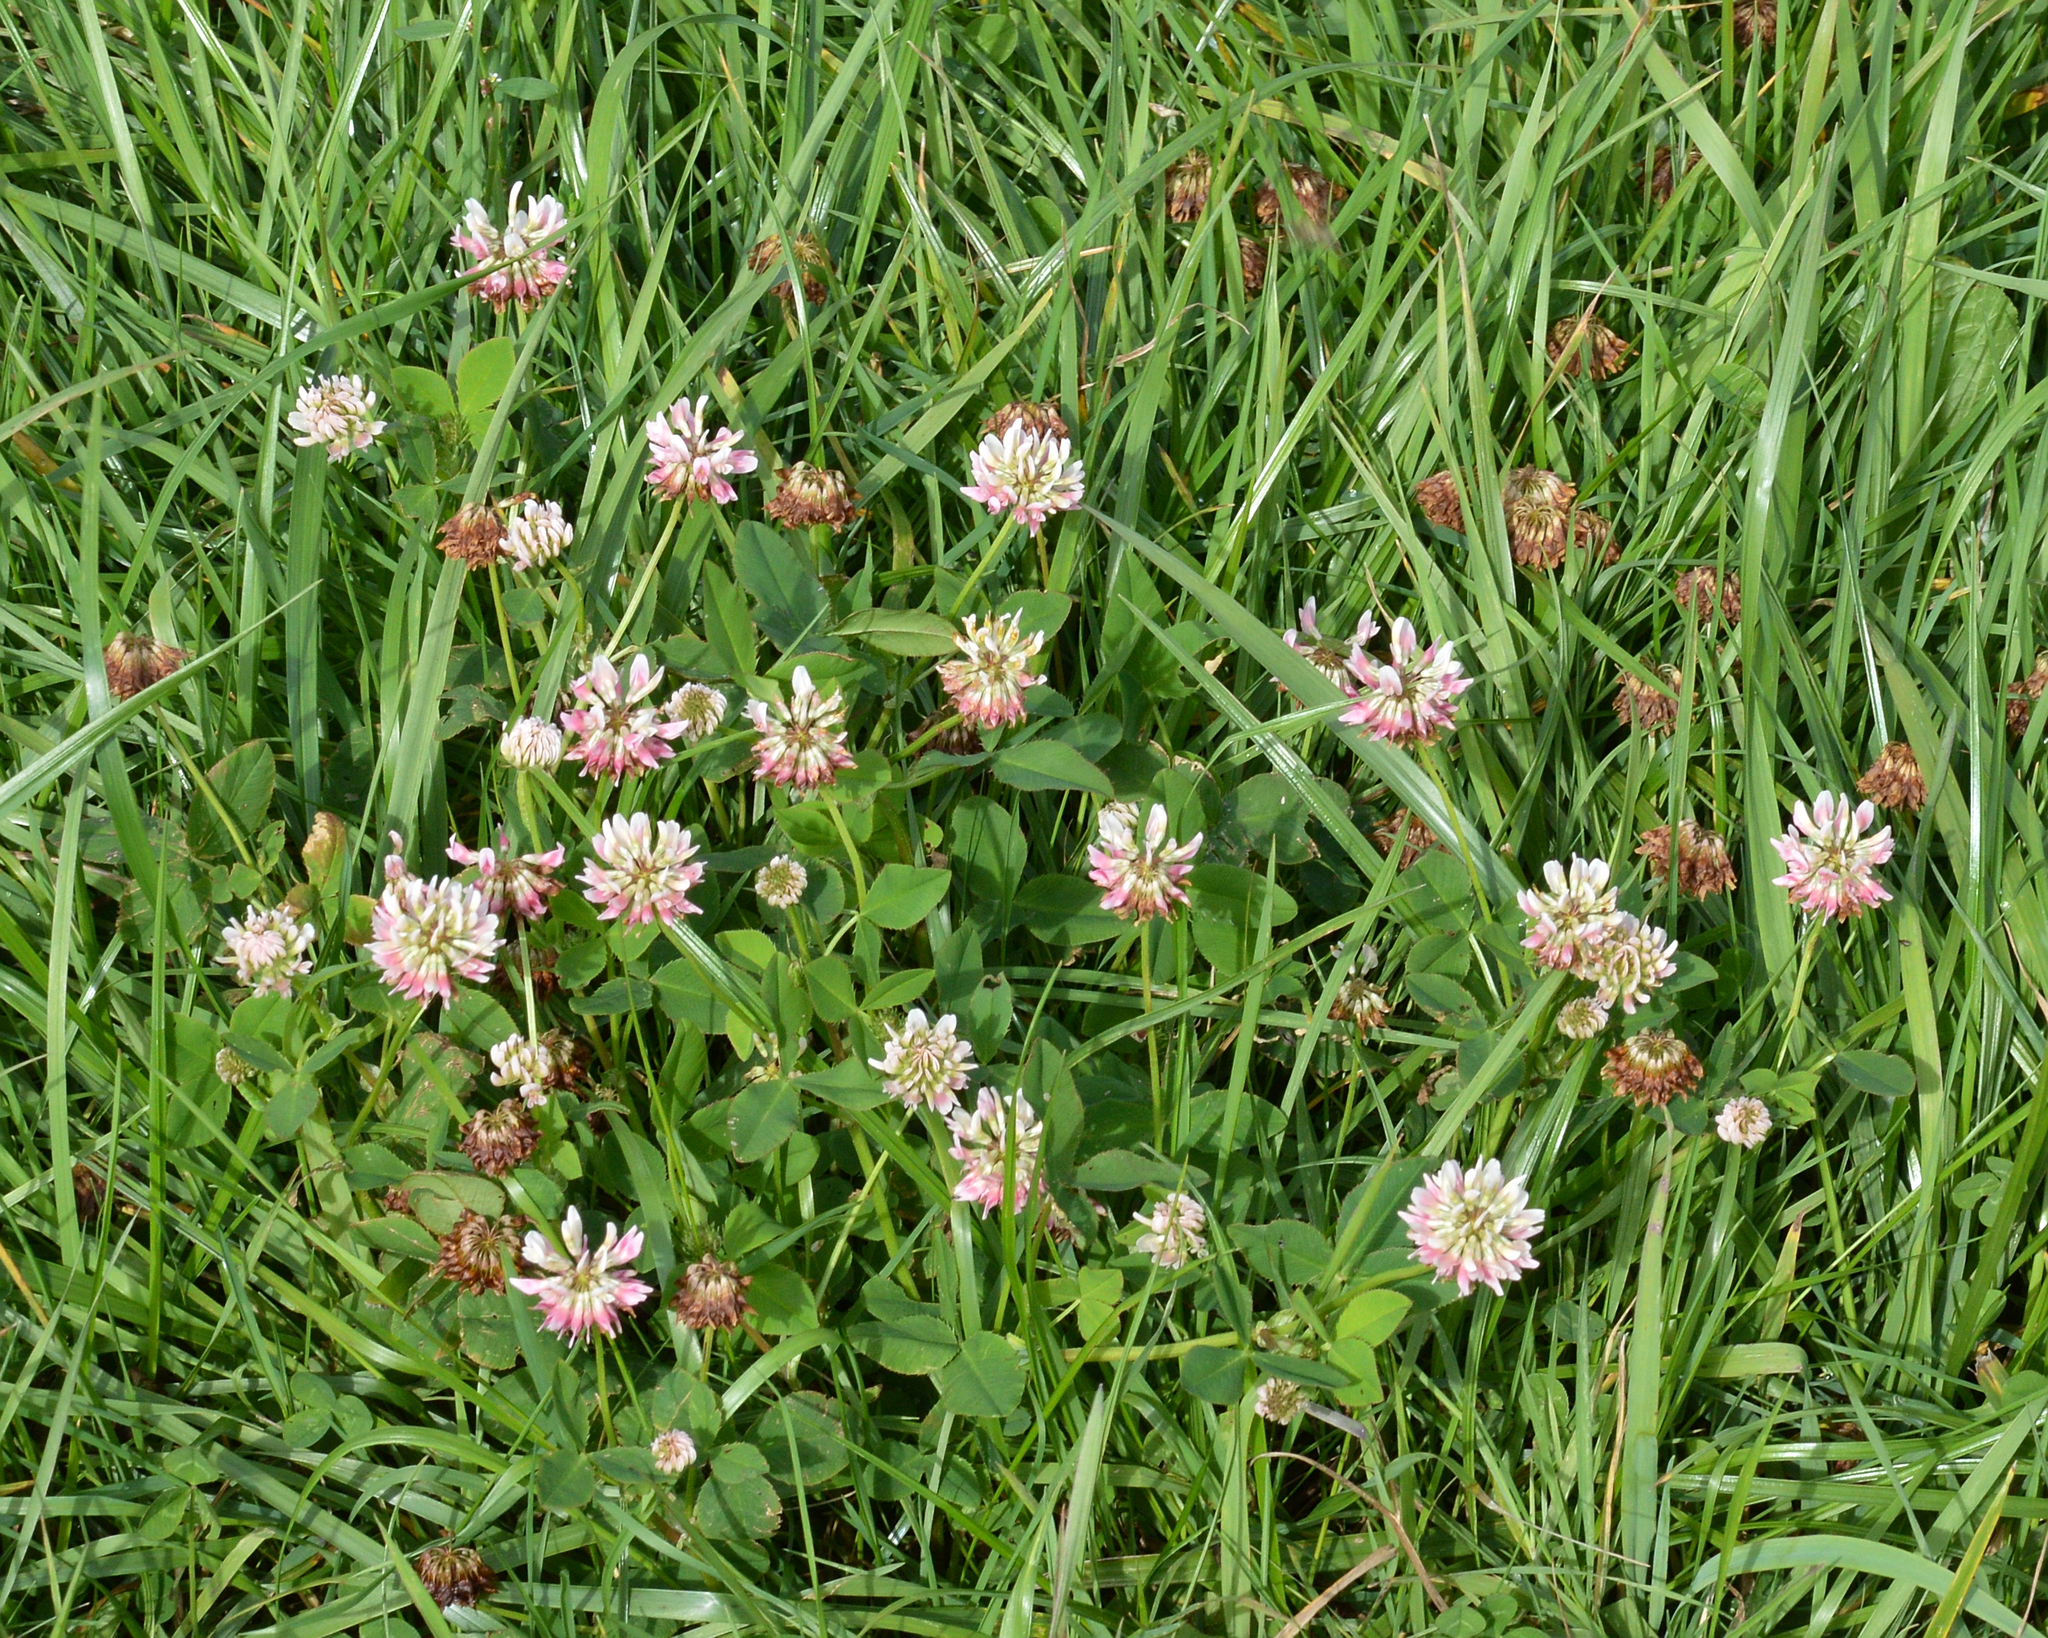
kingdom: Plantae
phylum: Tracheophyta
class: Magnoliopsida
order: Fabales
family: Fabaceae
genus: Trifolium
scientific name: Trifolium repens
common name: White clover
